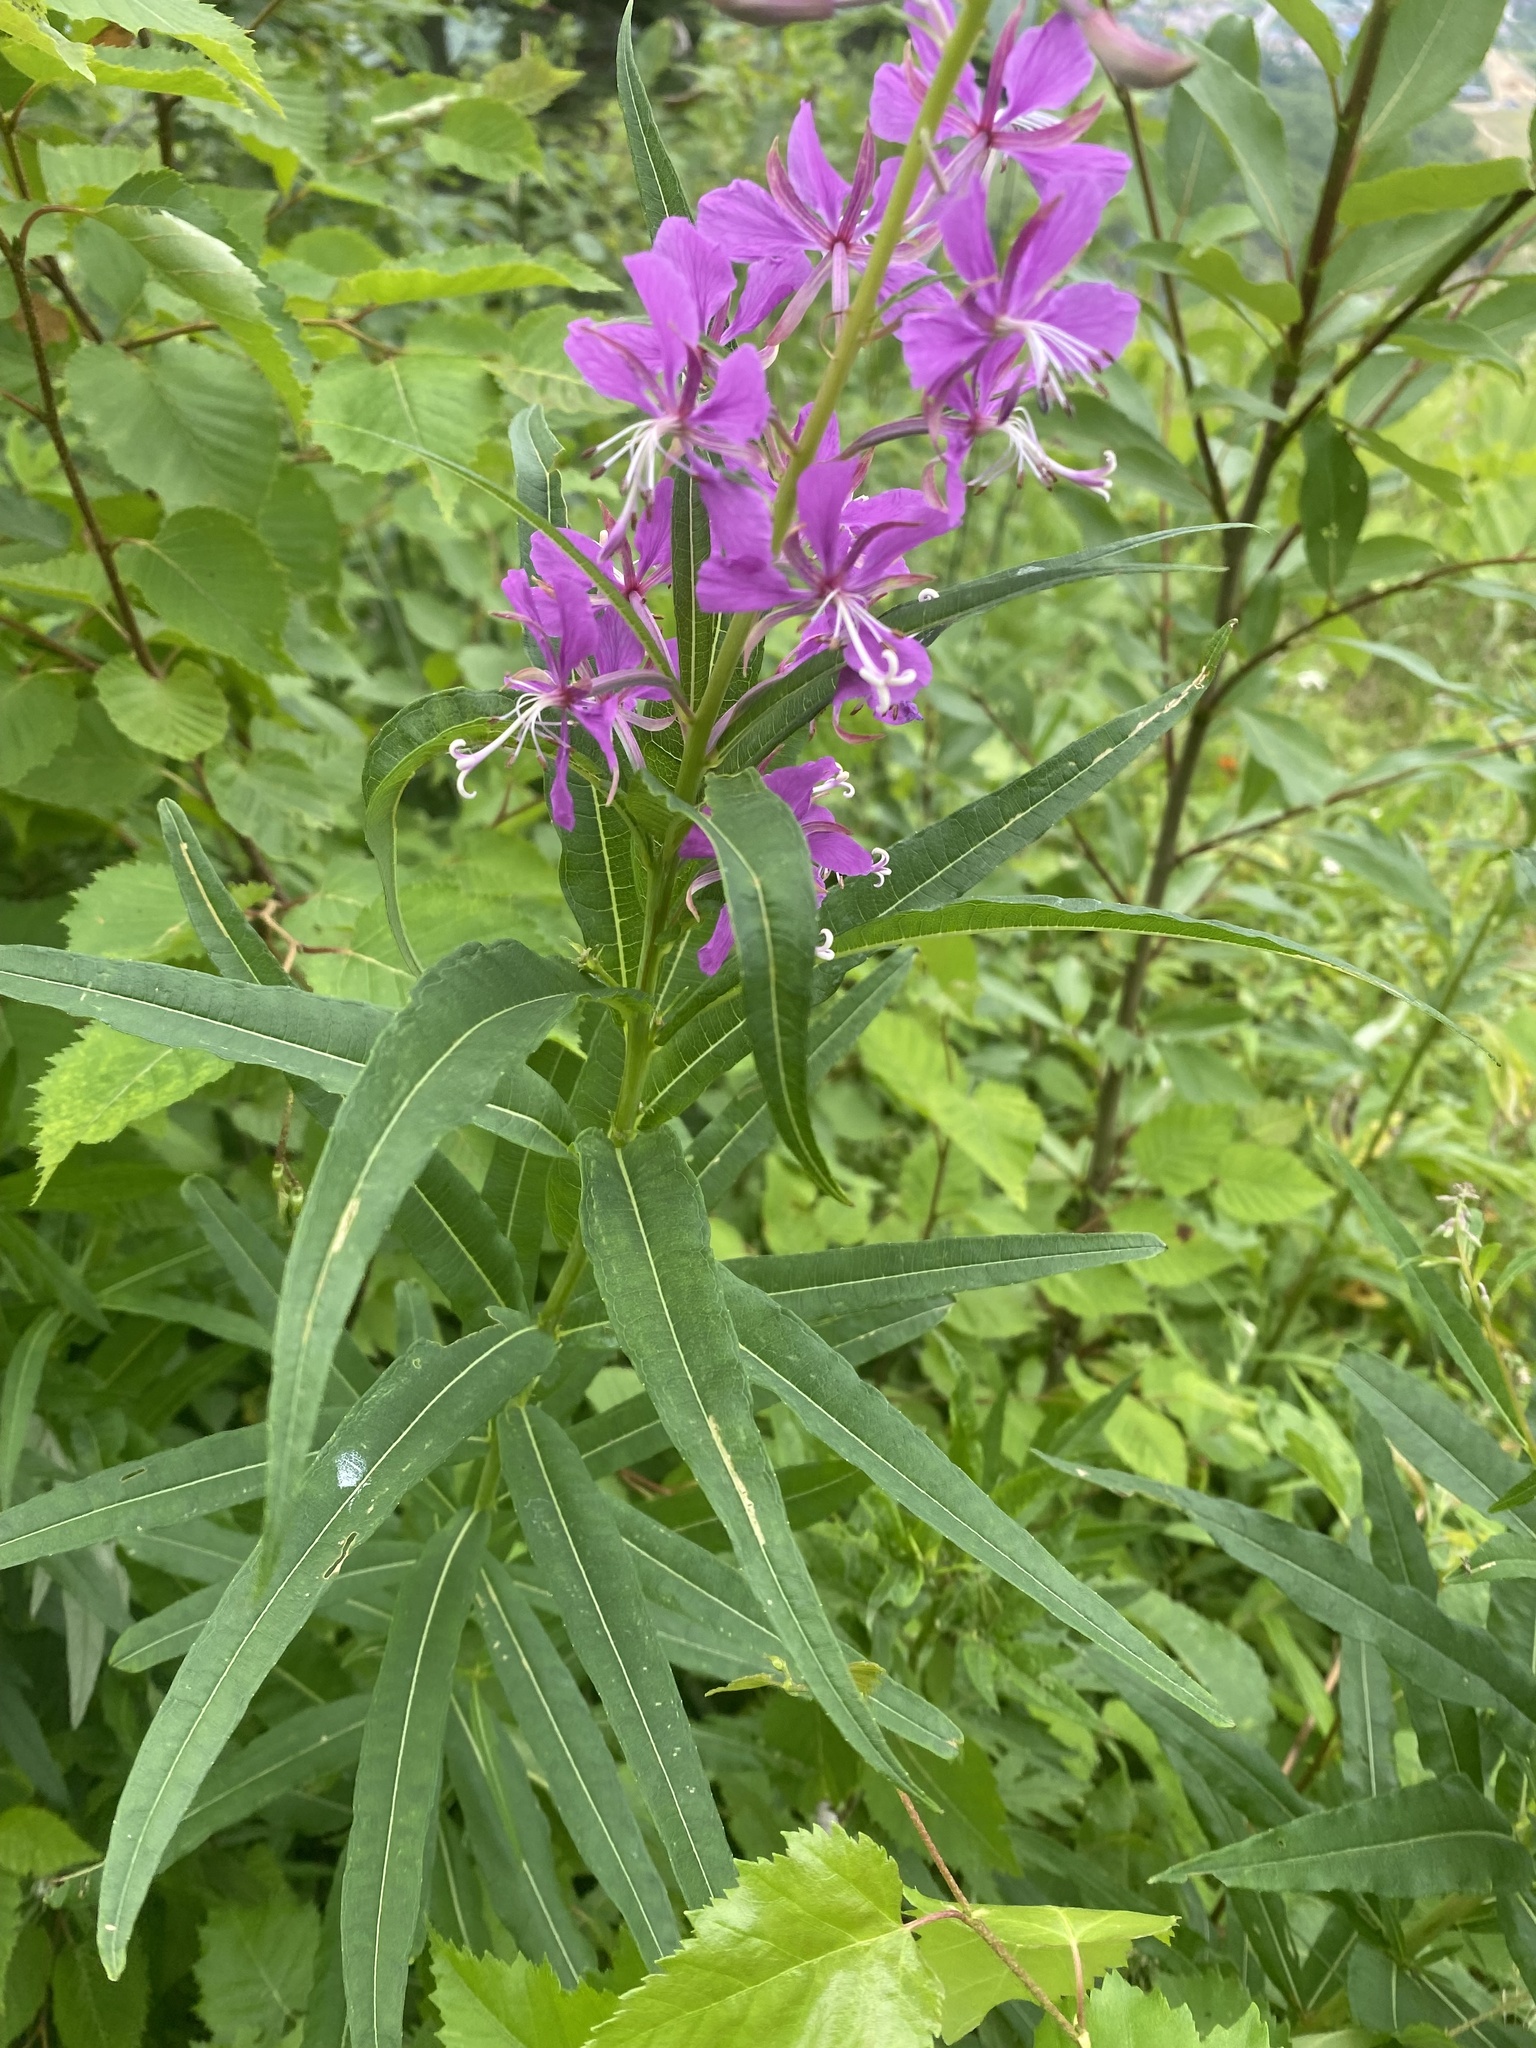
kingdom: Plantae
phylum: Tracheophyta
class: Magnoliopsida
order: Myrtales
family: Onagraceae
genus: Chamaenerion
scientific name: Chamaenerion angustifolium
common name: Fireweed
